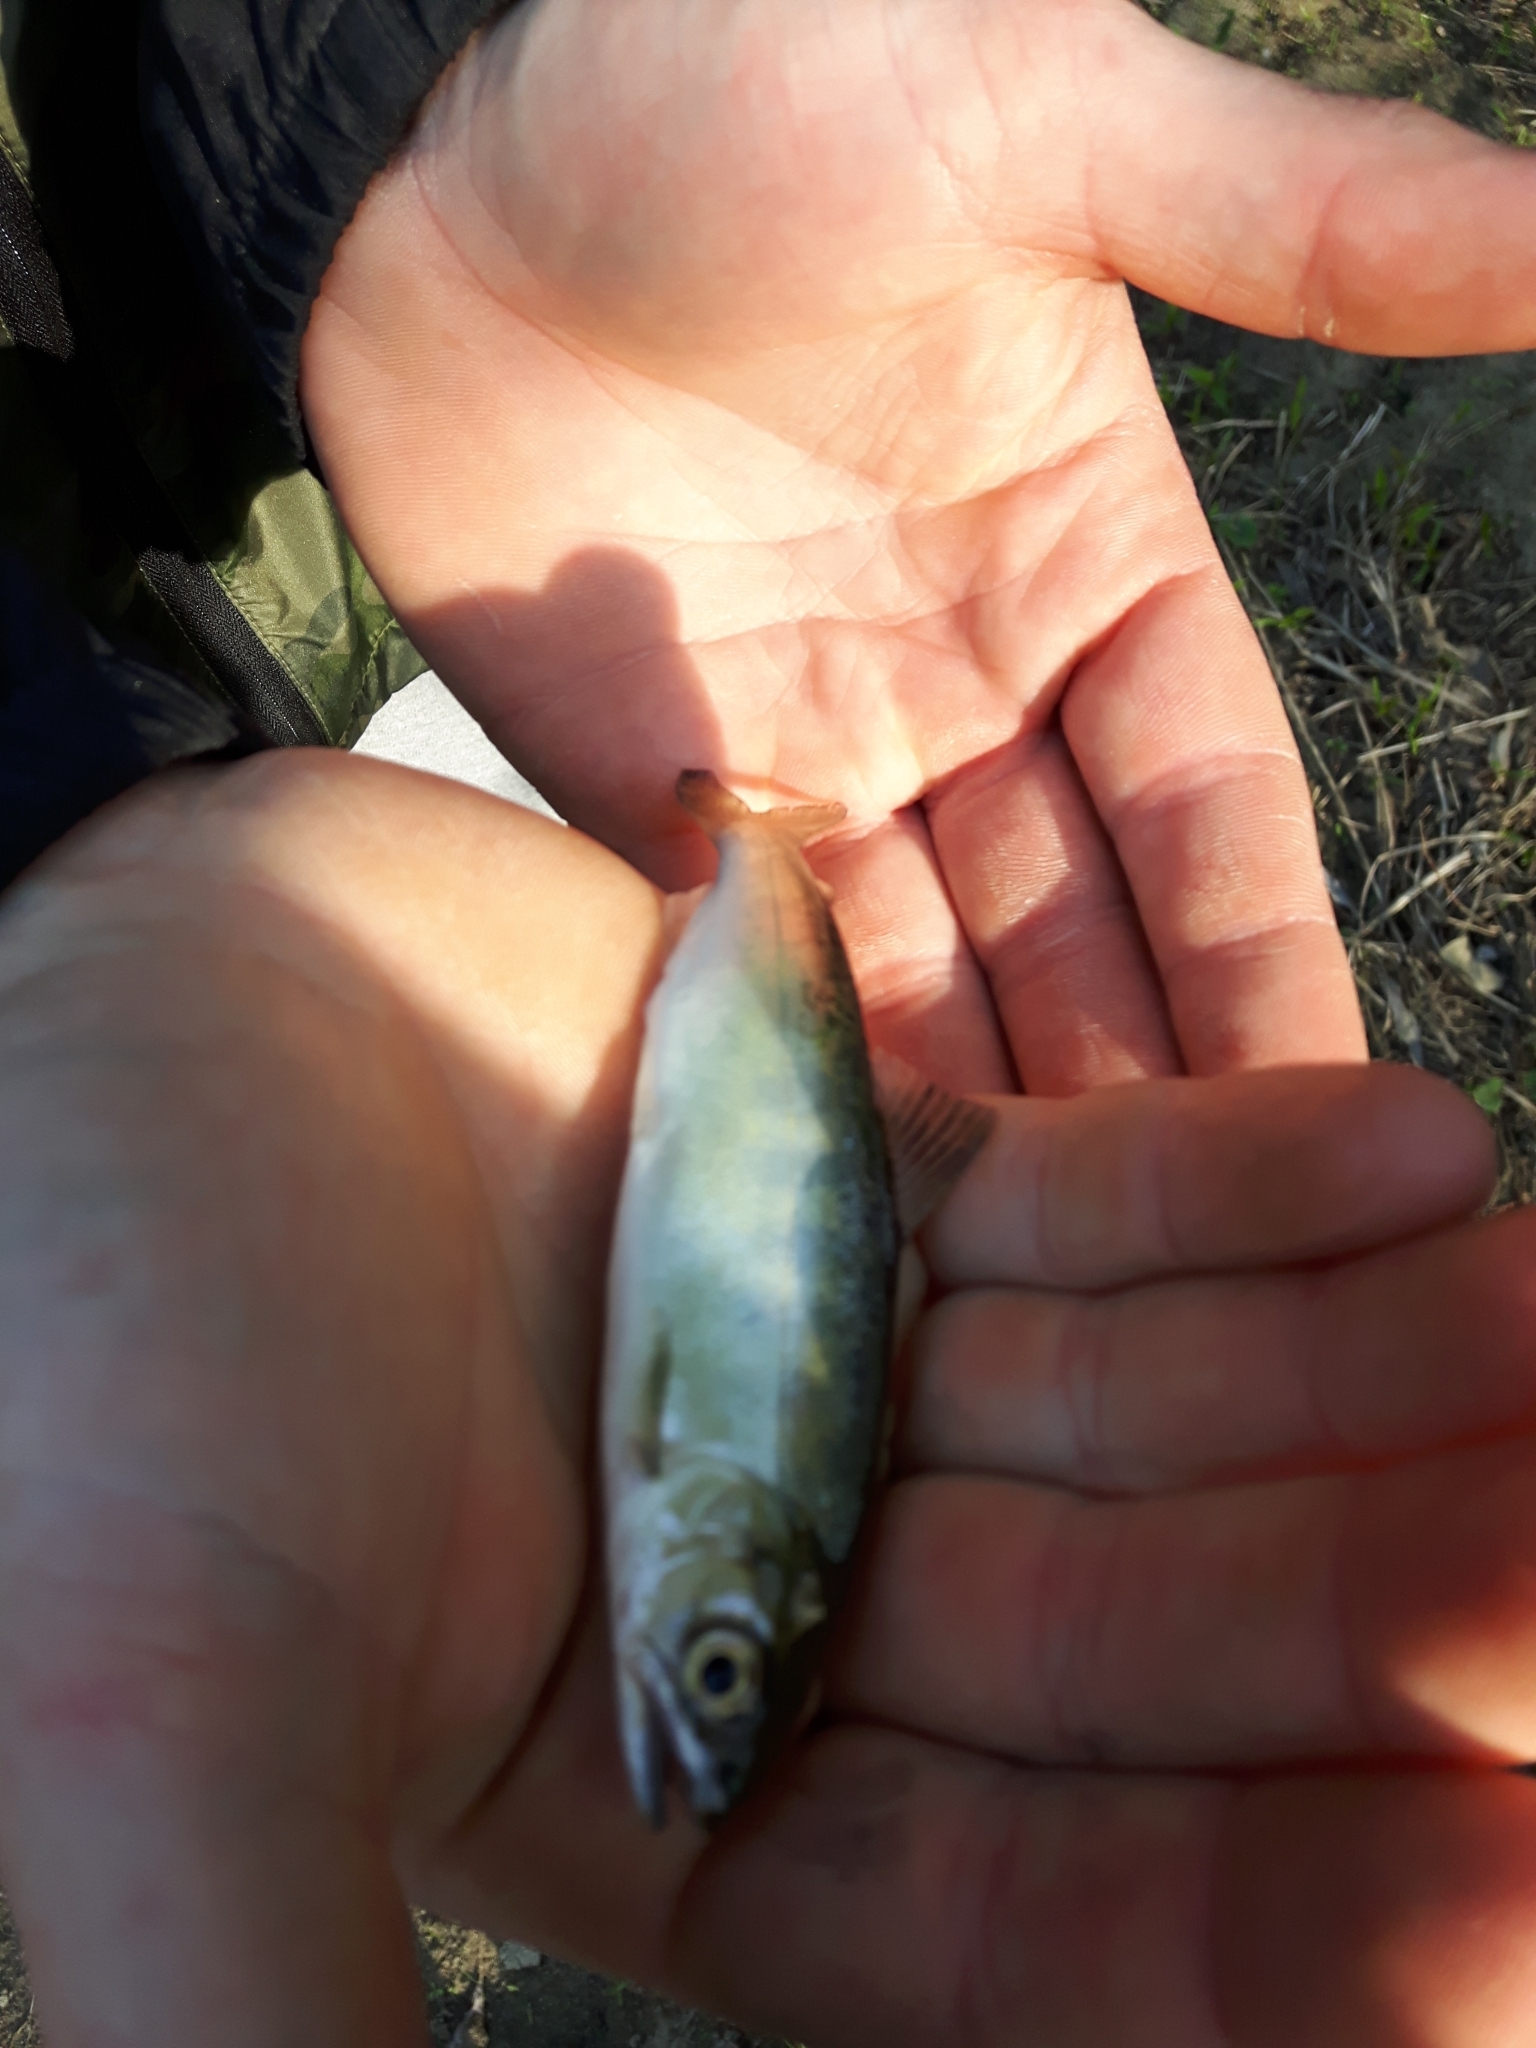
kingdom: Animalia
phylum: Chordata
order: Salmoniformes
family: Salmonidae
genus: Oncorhynchus
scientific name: Oncorhynchus tshawytscha
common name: Chinook salmon
